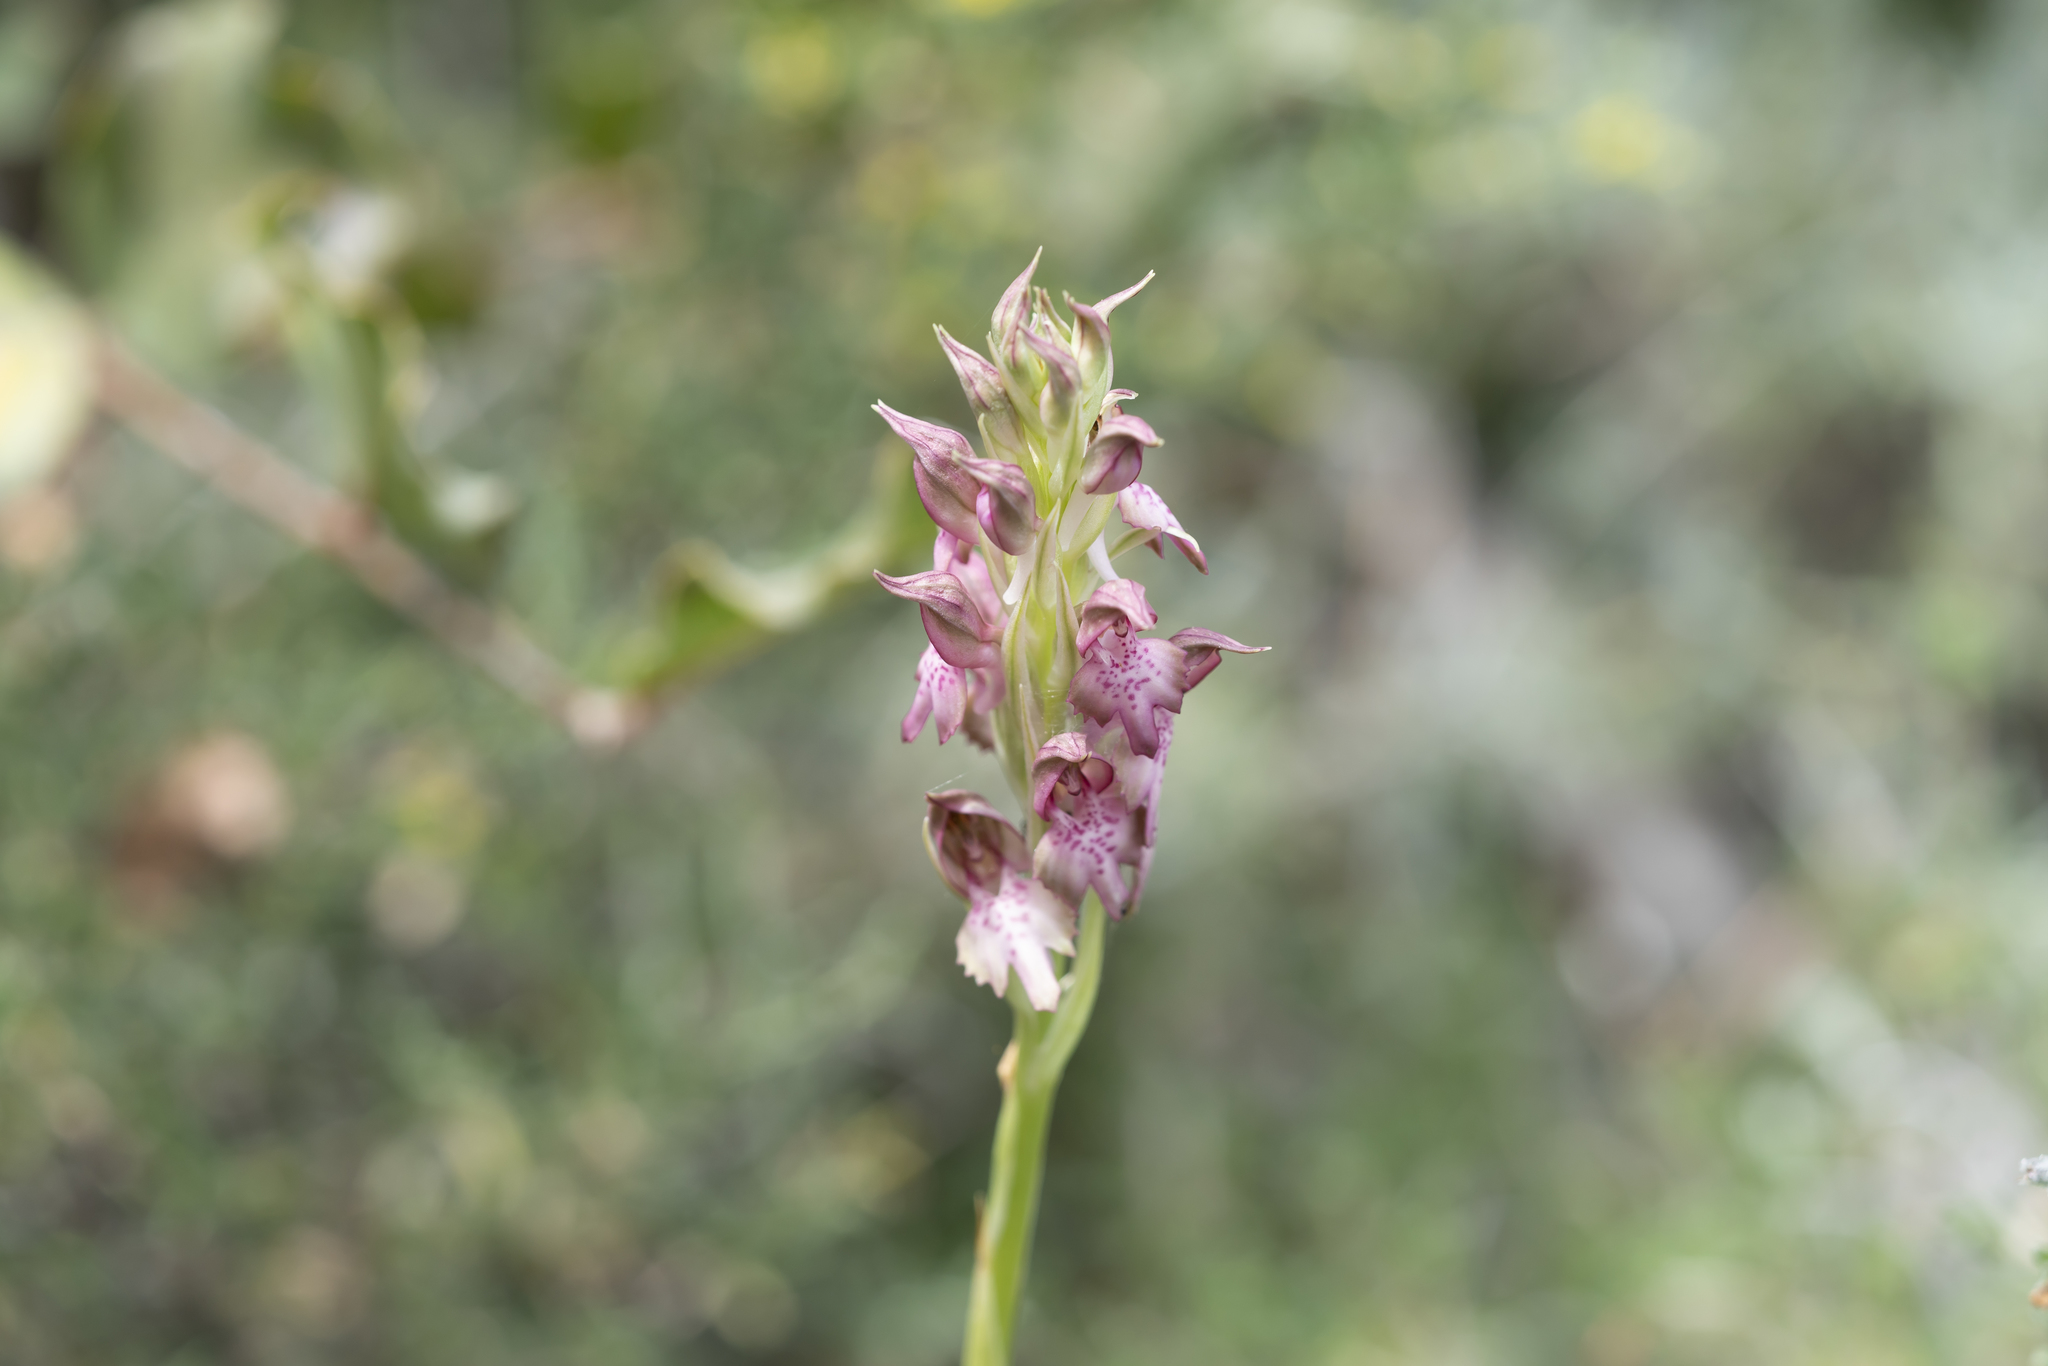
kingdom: Plantae
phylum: Tracheophyta
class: Liliopsida
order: Asparagales
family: Orchidaceae
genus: Orchis
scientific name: Orchis kallithea
